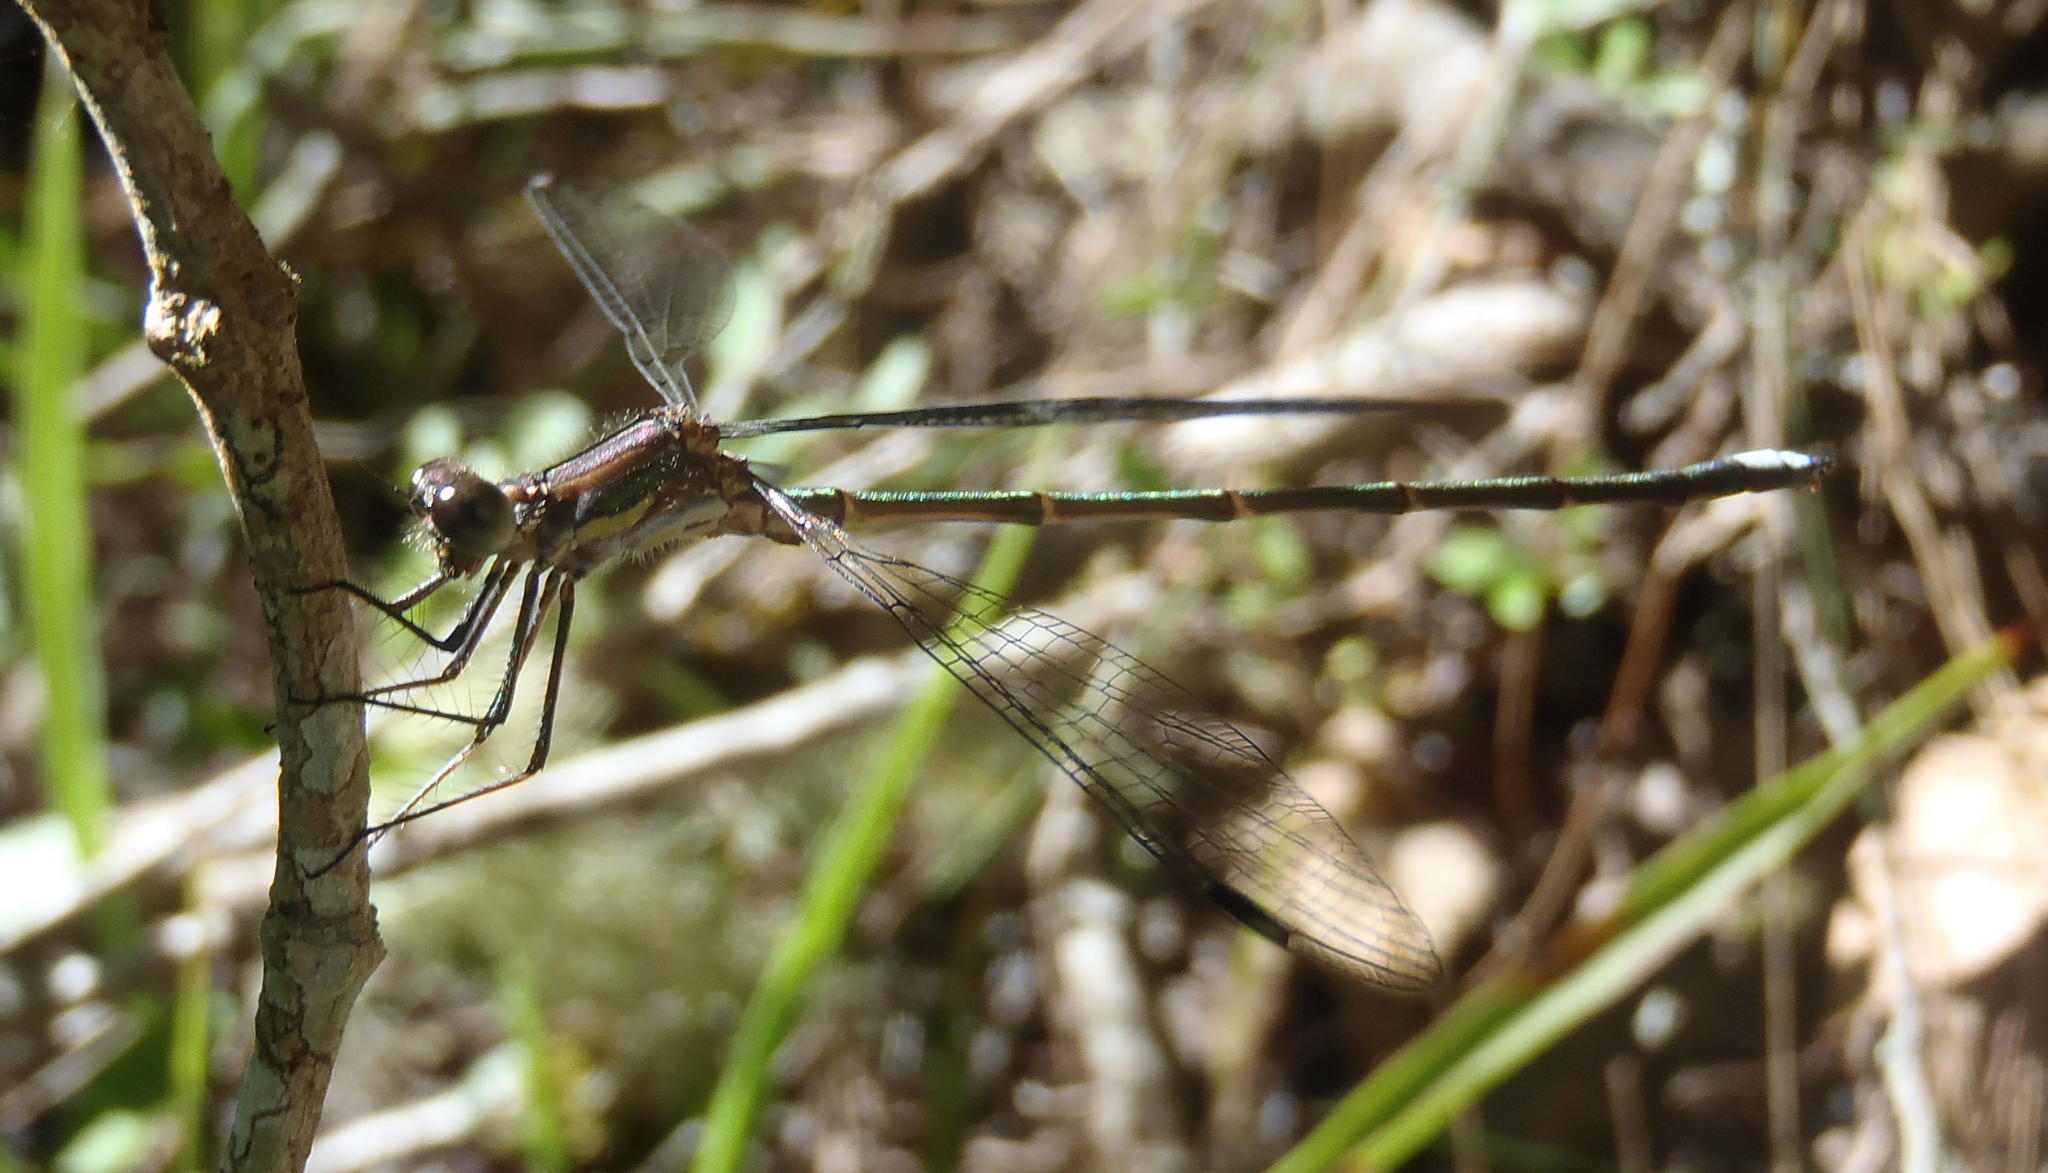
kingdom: Animalia
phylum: Arthropoda
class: Insecta
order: Odonata
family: Synlestidae
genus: Chlorolestes
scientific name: Chlorolestes tessellatus
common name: Forest malachite
